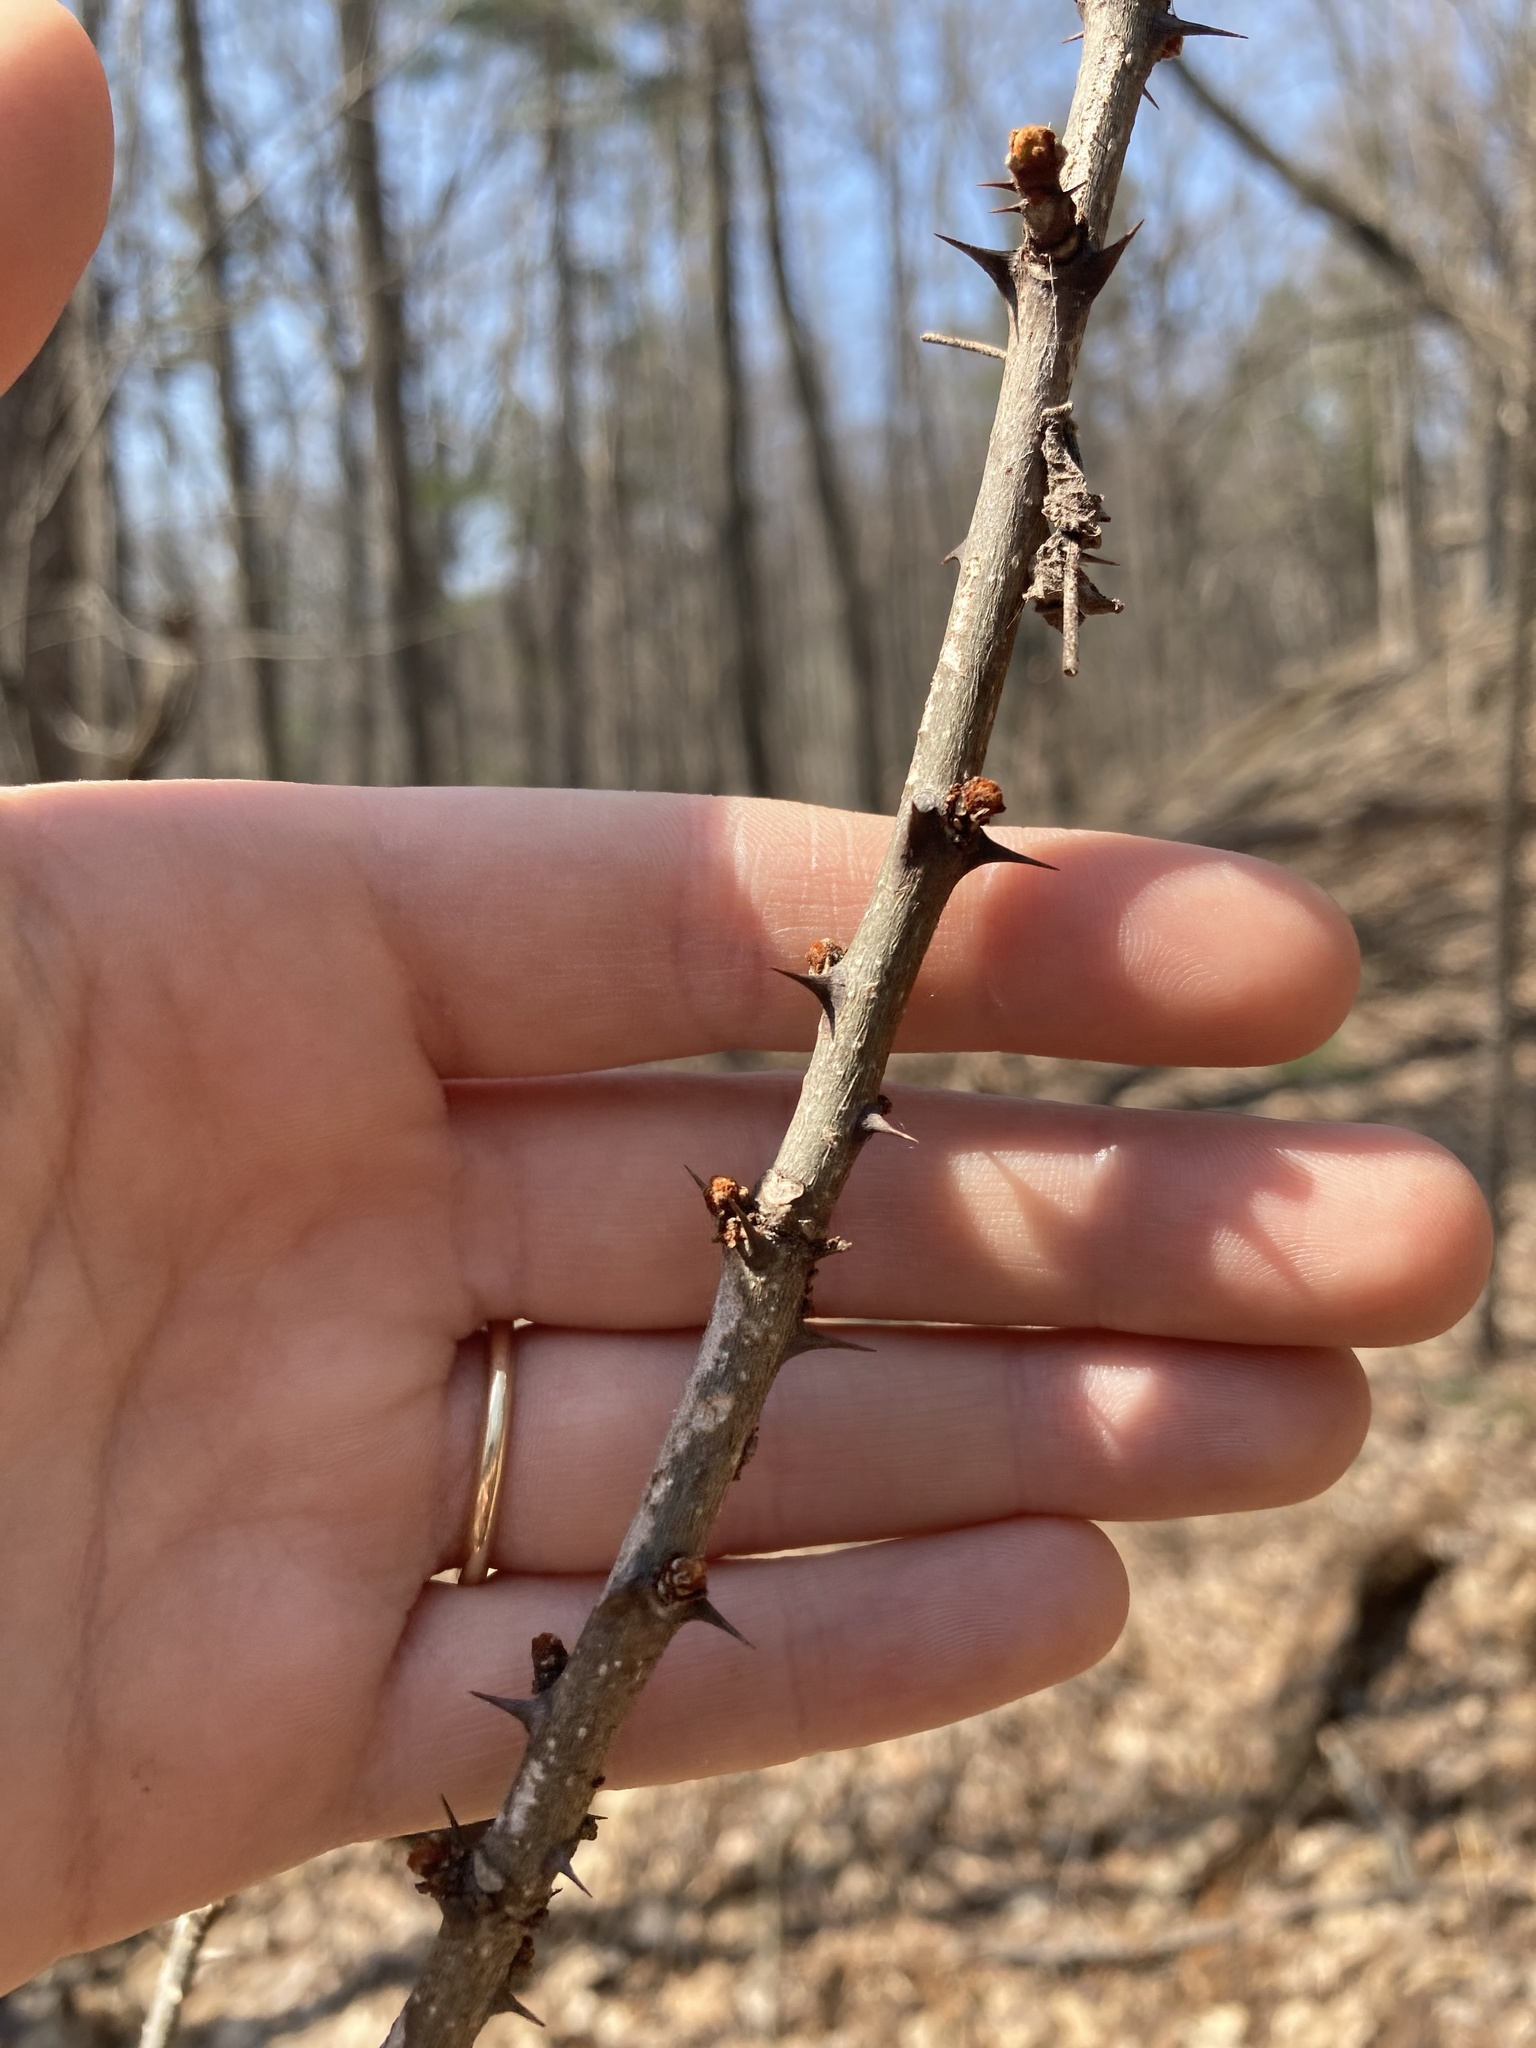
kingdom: Plantae
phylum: Tracheophyta
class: Magnoliopsida
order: Sapindales
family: Rutaceae
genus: Zanthoxylum
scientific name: Zanthoxylum americanum
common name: Northern prickly-ash
